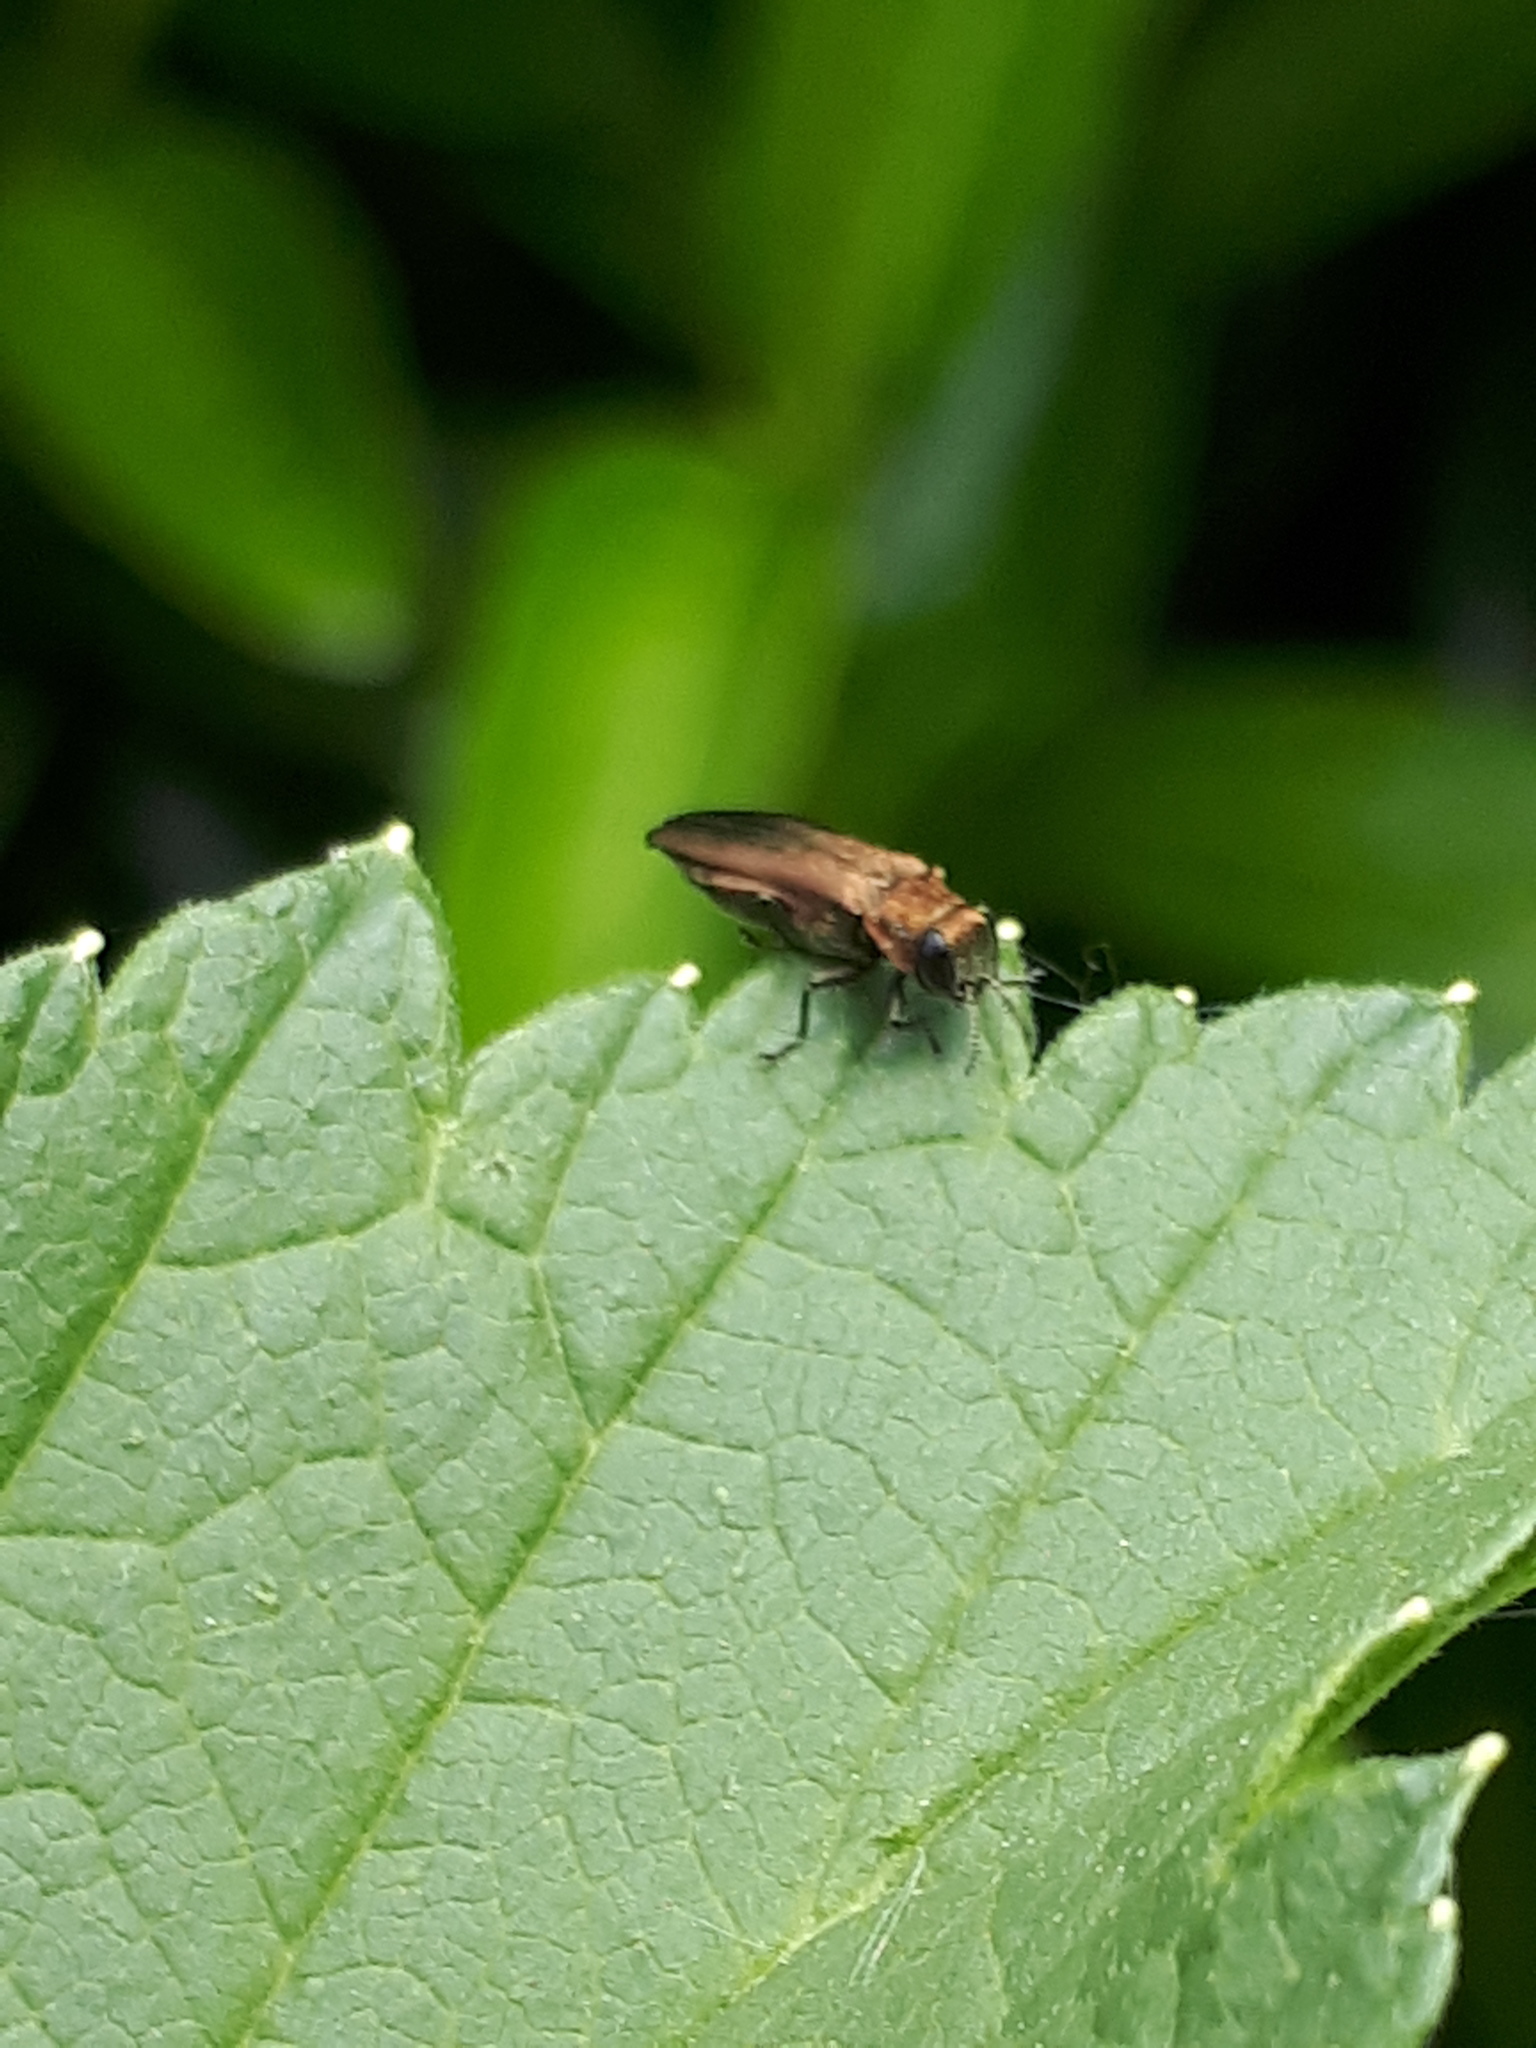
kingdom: Animalia
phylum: Arthropoda
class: Insecta
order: Coleoptera
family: Buprestidae
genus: Agrilus
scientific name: Agrilus cuprescens
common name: Rose stem girdler
